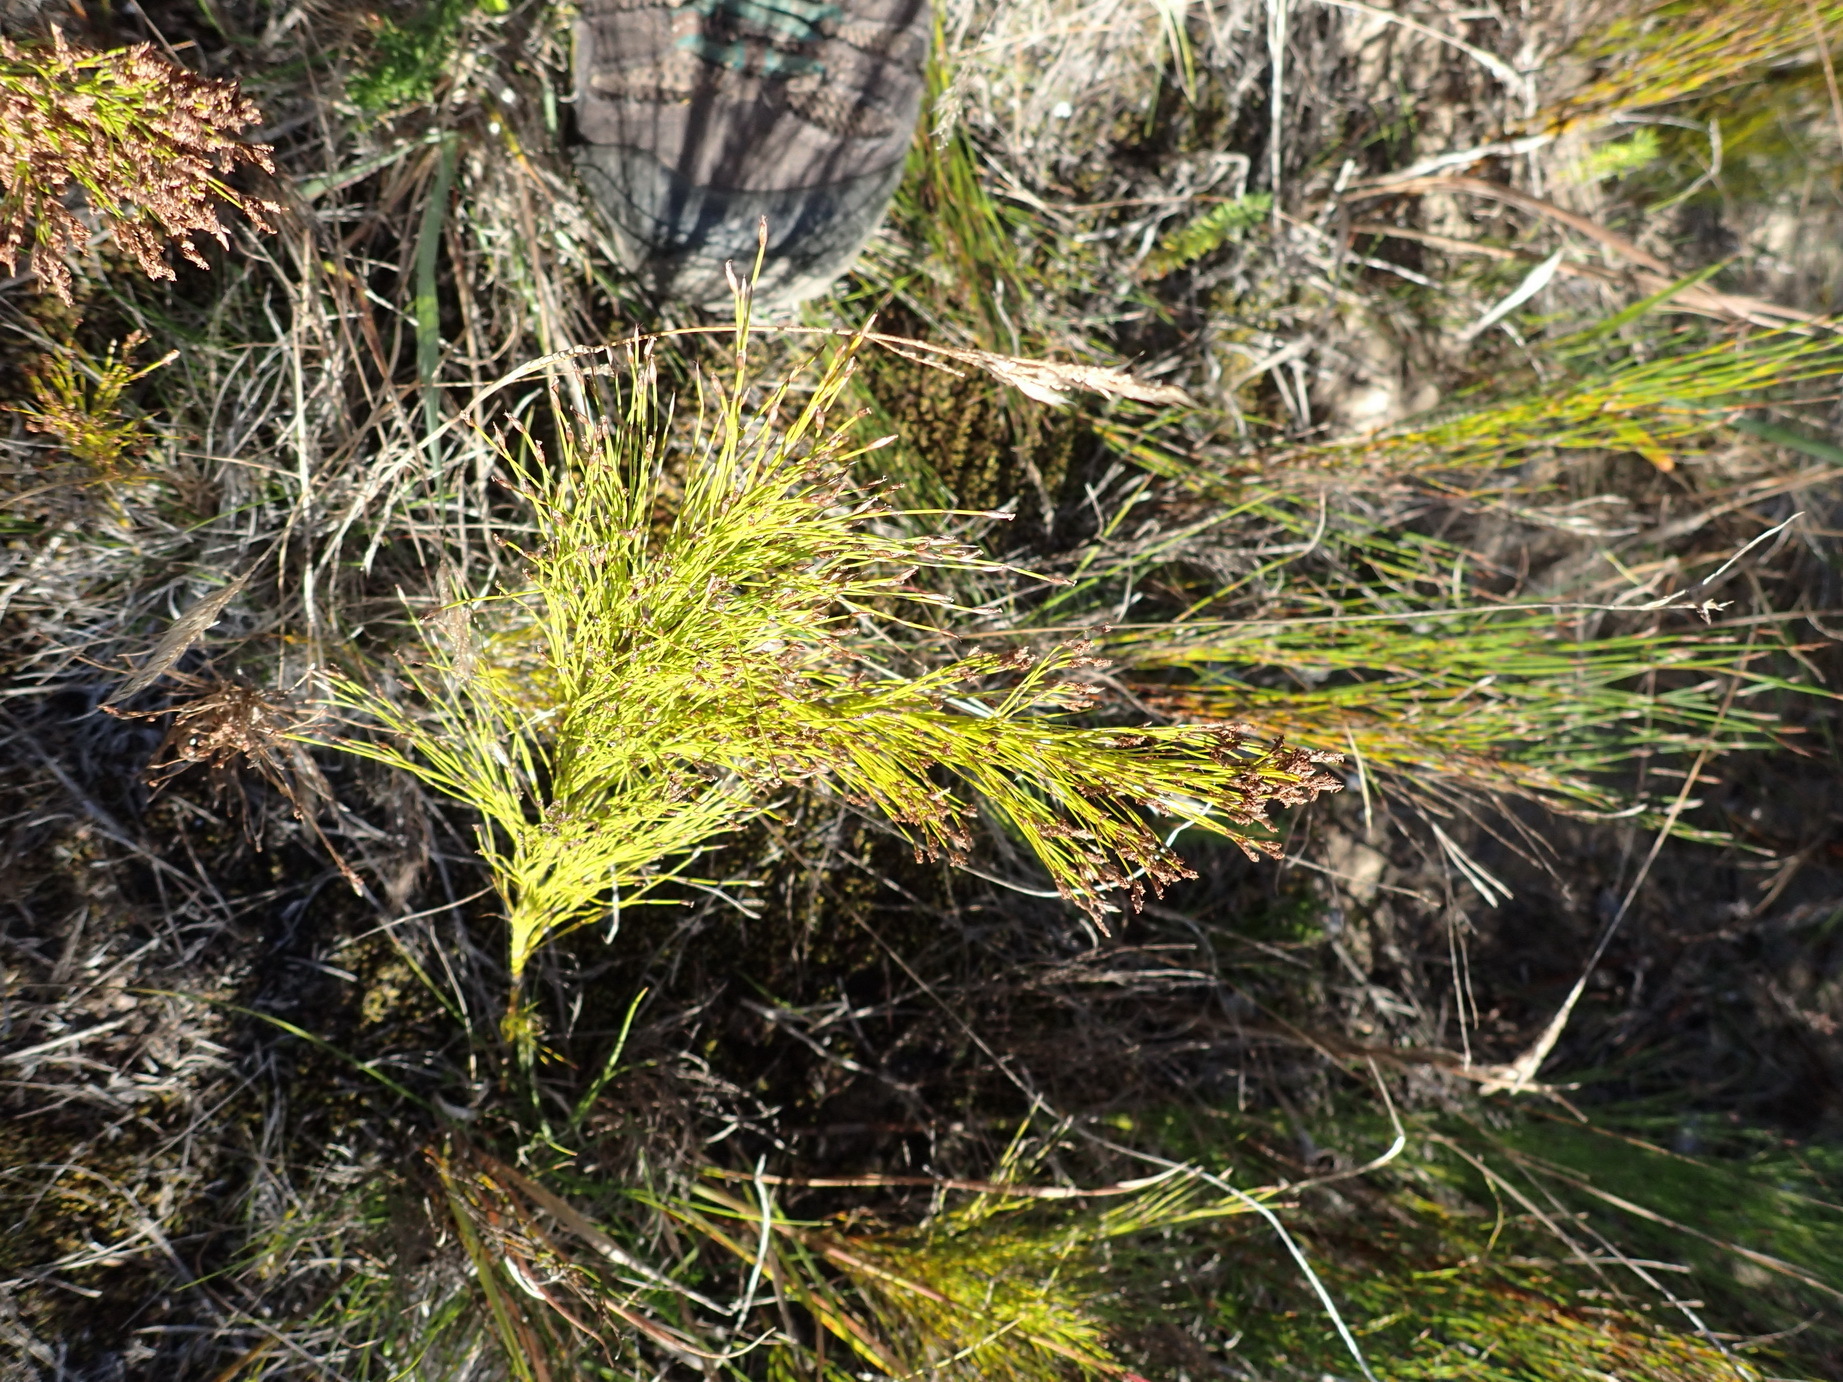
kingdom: Plantae
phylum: Tracheophyta
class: Liliopsida
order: Poales
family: Restionaceae
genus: Restio
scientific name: Restio leptoclados
